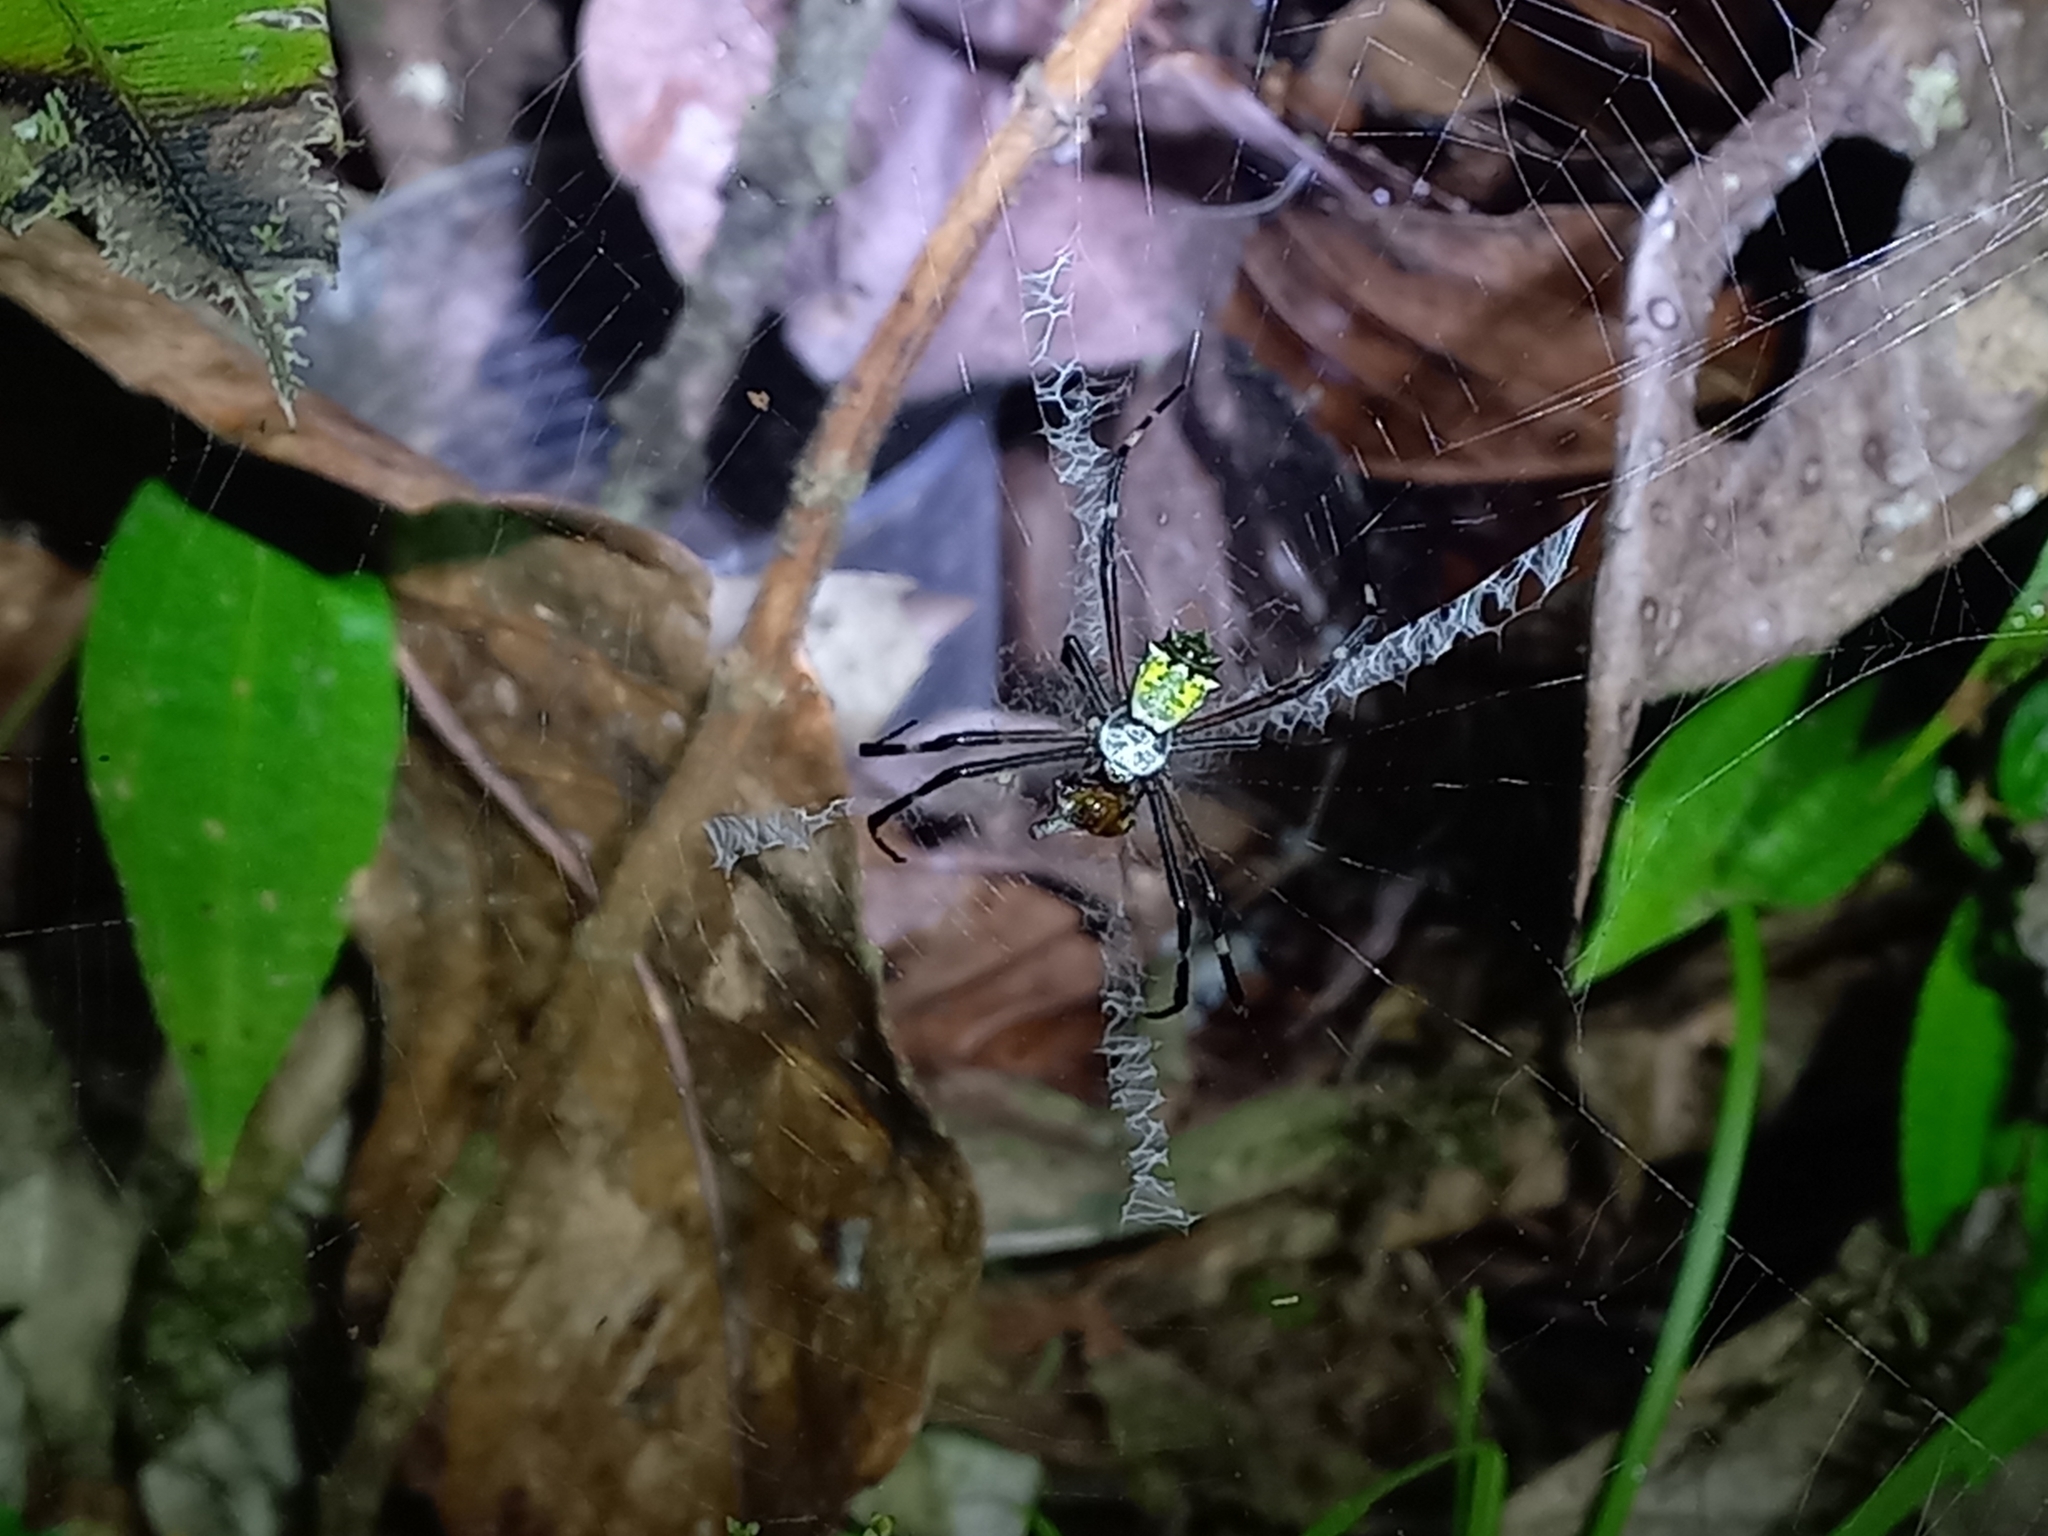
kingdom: Animalia
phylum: Arthropoda
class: Arachnida
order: Araneae
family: Araneidae
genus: Argiope
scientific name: Argiope submaronica
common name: Orb weavers
